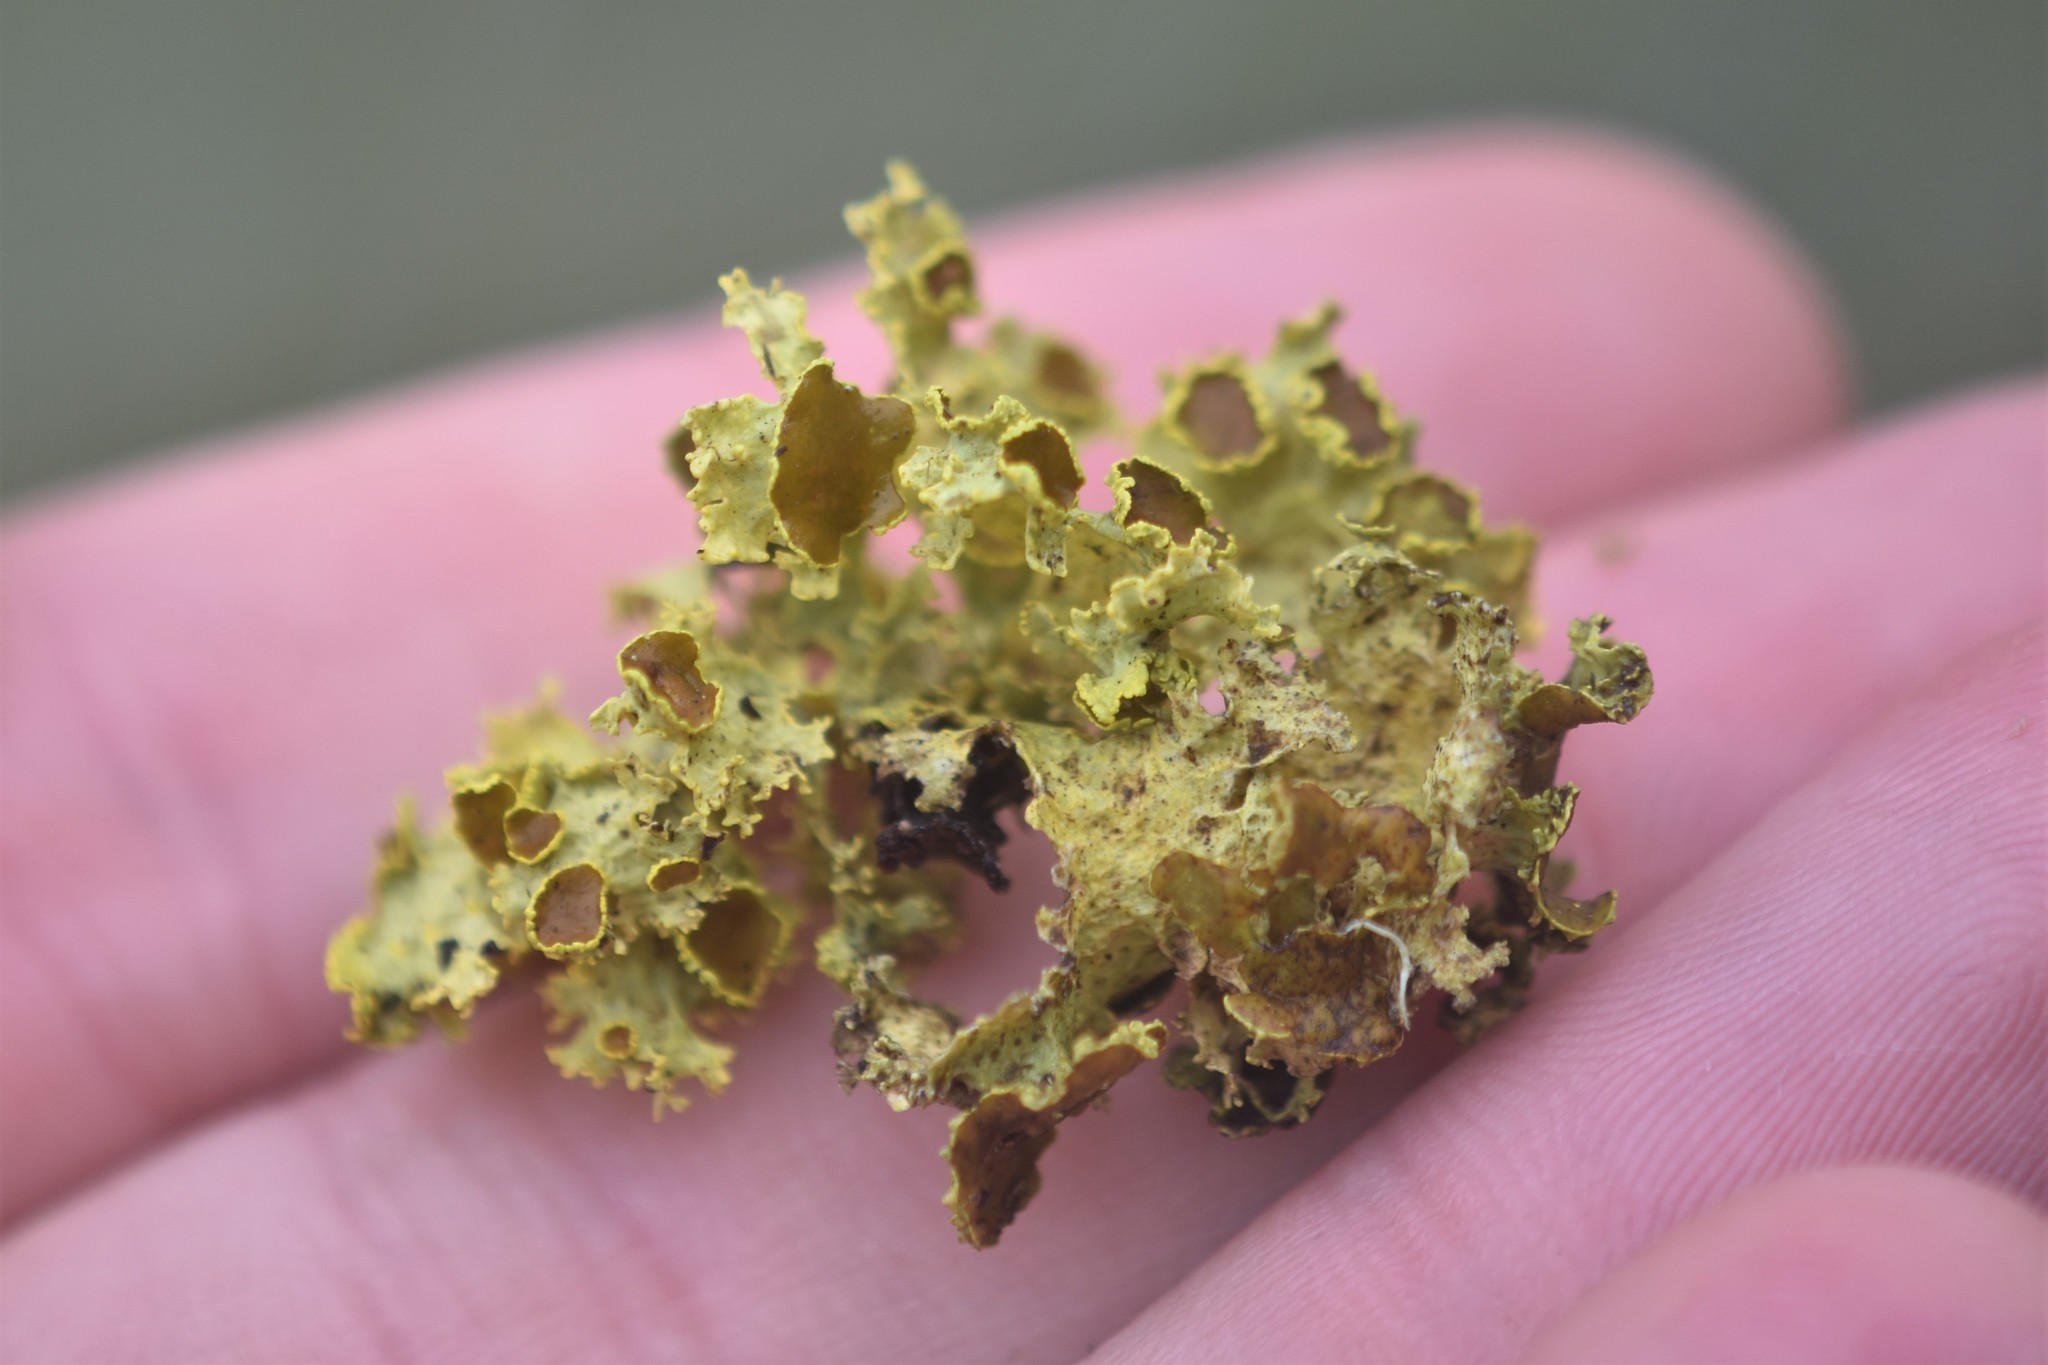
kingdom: Fungi
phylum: Ascomycota
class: Lecanoromycetes
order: Lecanorales
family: Parmeliaceae
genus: Vulpicida
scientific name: Vulpicida canadensis
